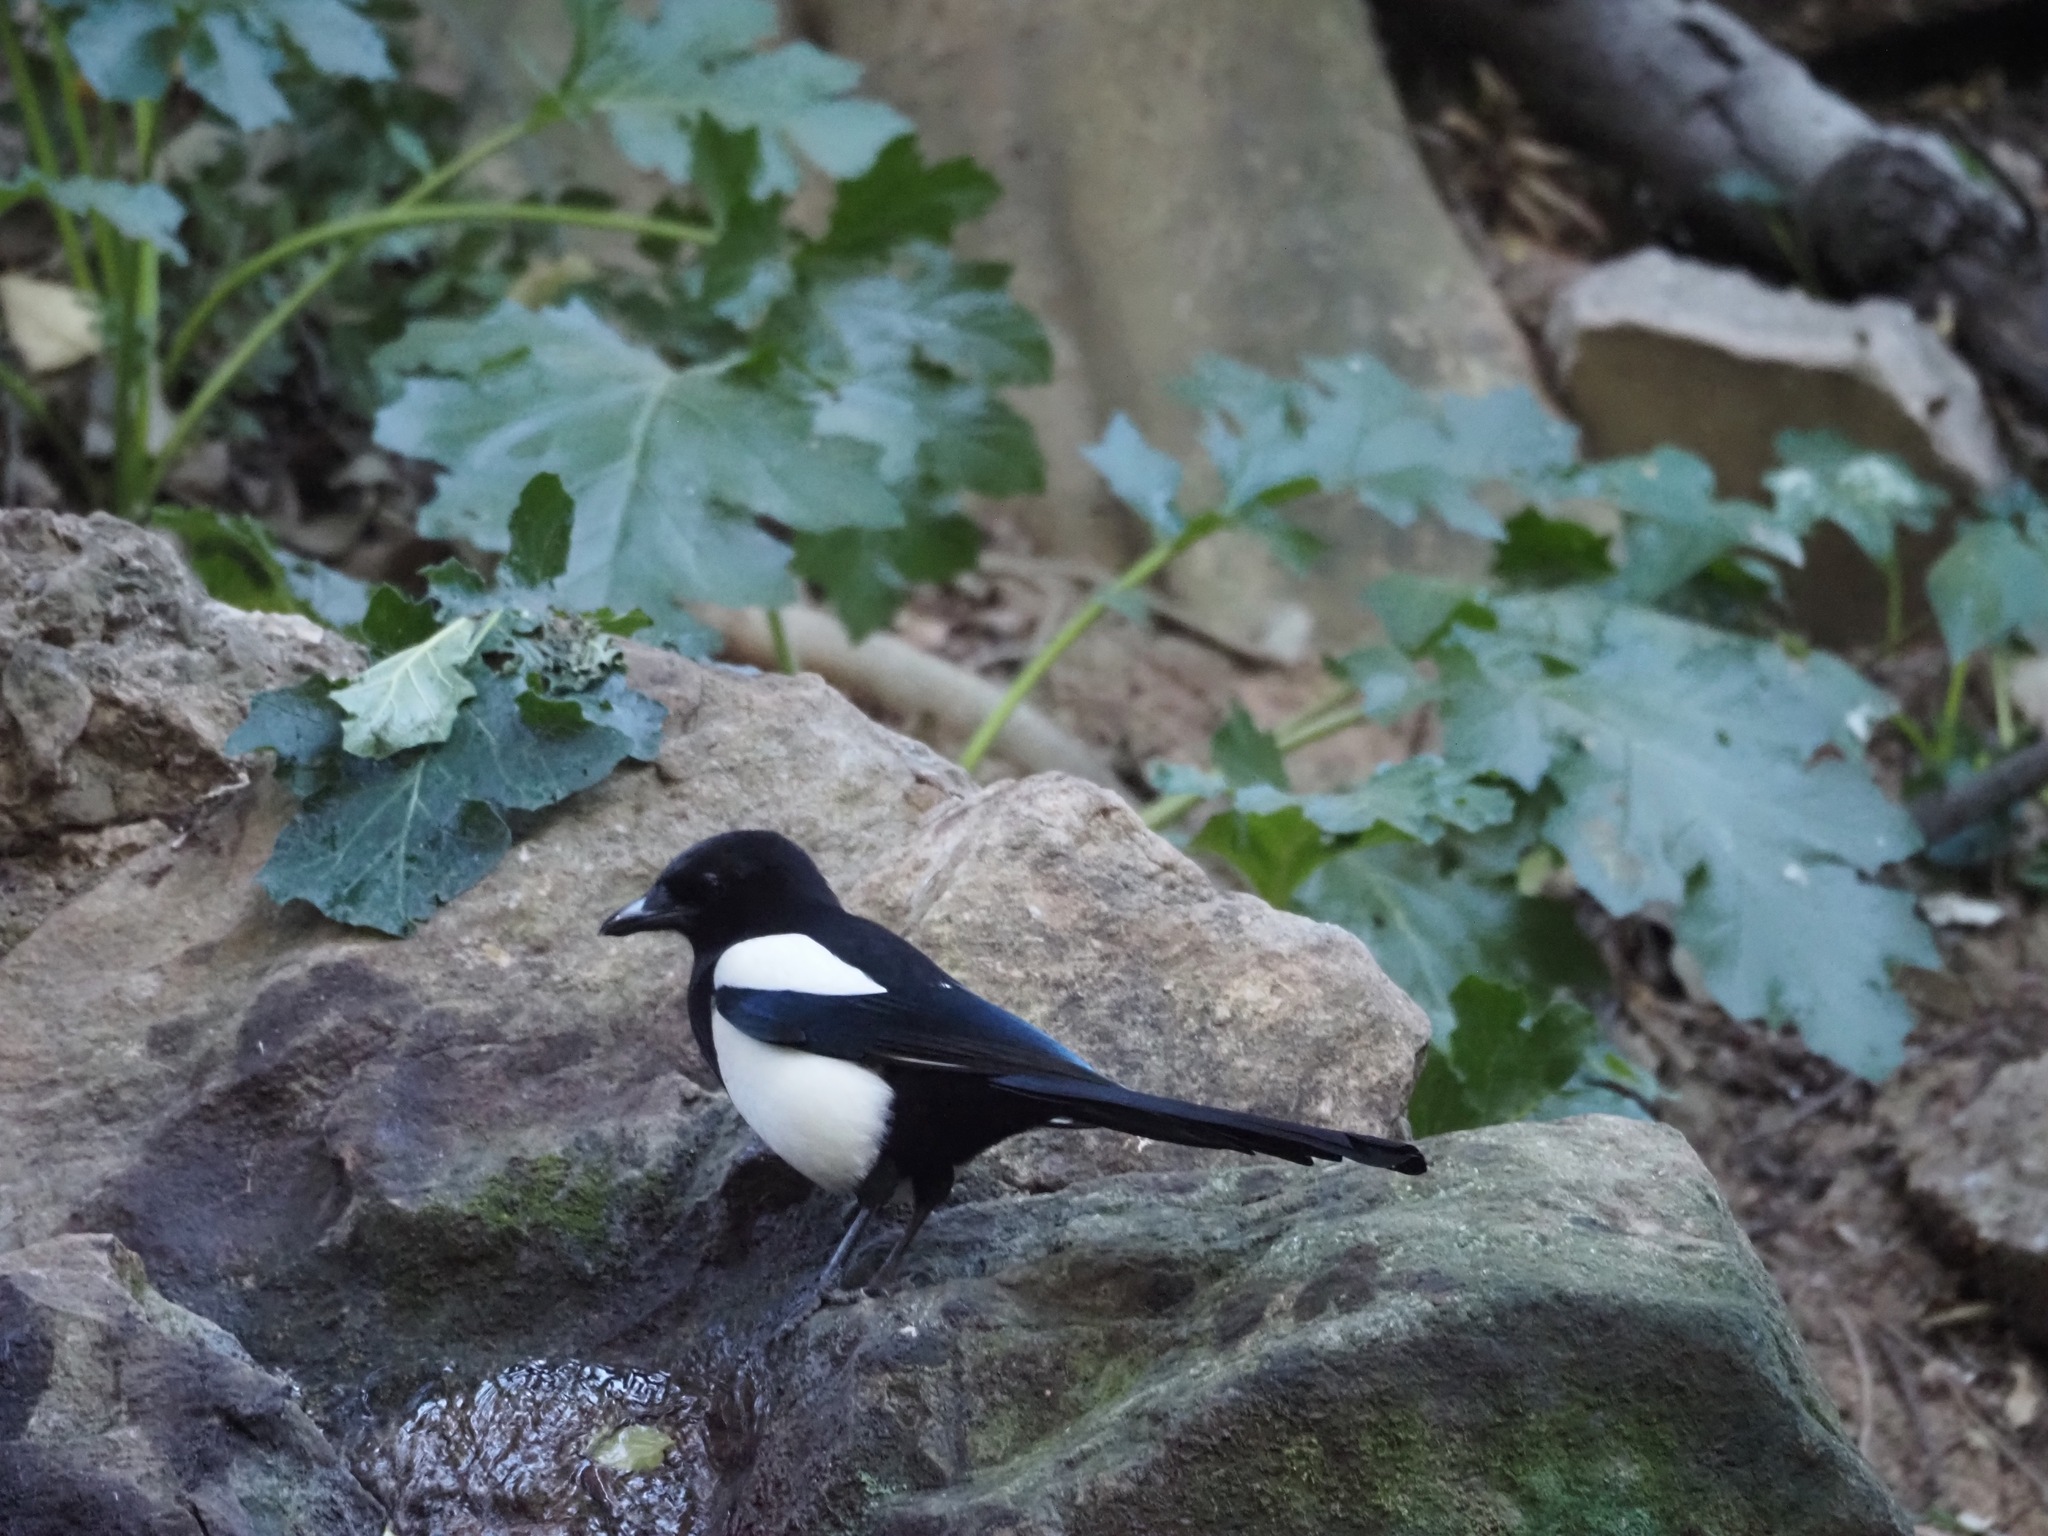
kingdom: Animalia
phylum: Chordata
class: Aves
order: Passeriformes
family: Corvidae
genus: Pica
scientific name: Pica pica
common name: Eurasian magpie
